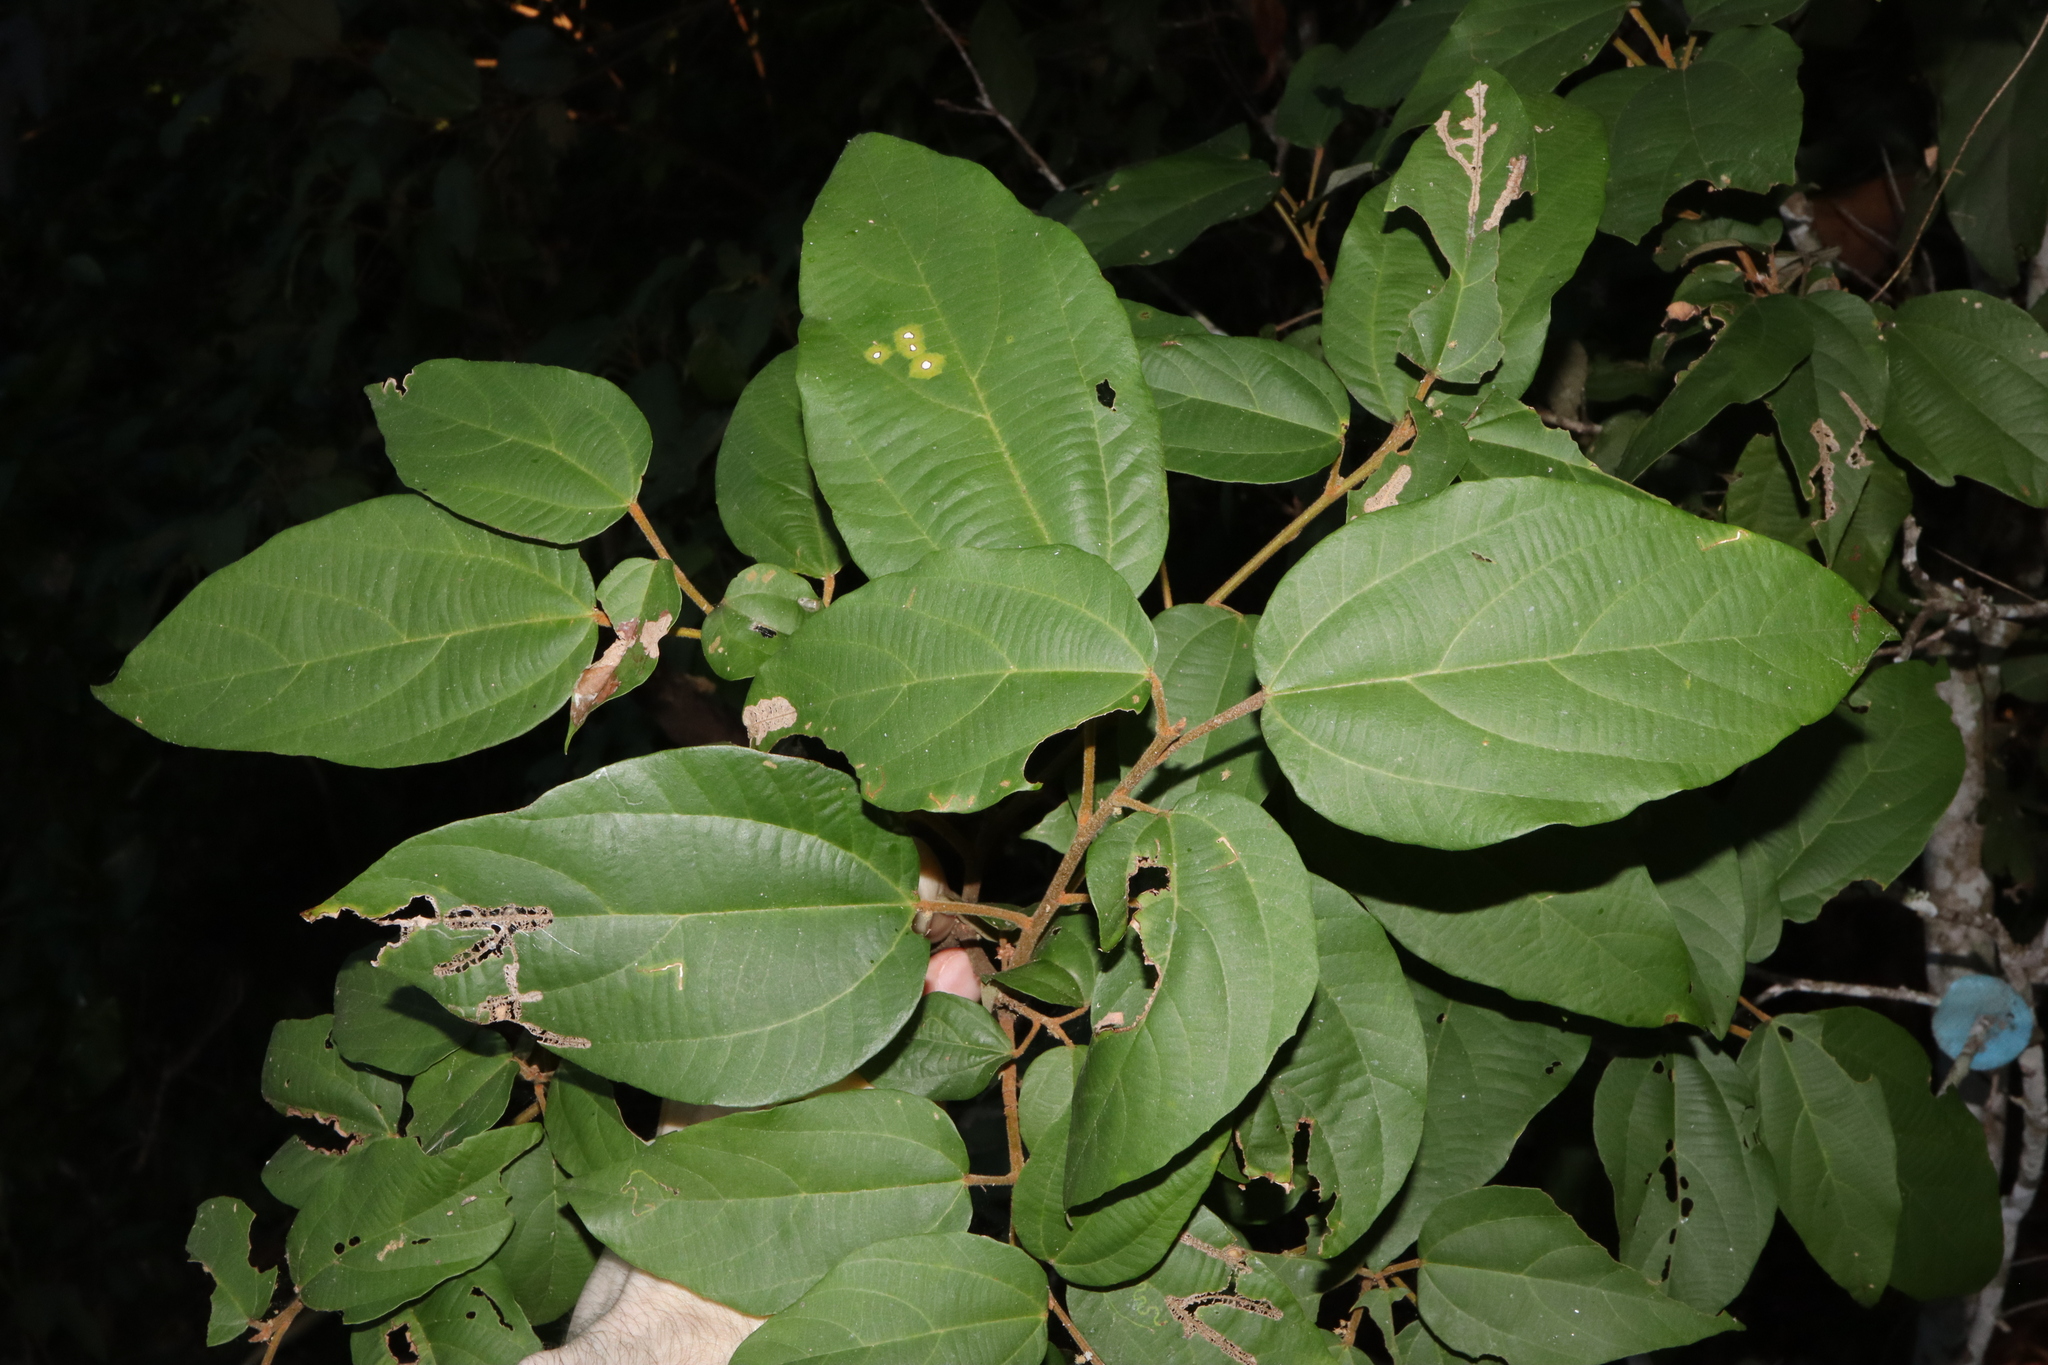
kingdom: Plantae
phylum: Tracheophyta
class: Magnoliopsida
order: Malpighiales
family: Euphorbiaceae
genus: Mallotus
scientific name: Mallotus philippensis
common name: Kamala tree
